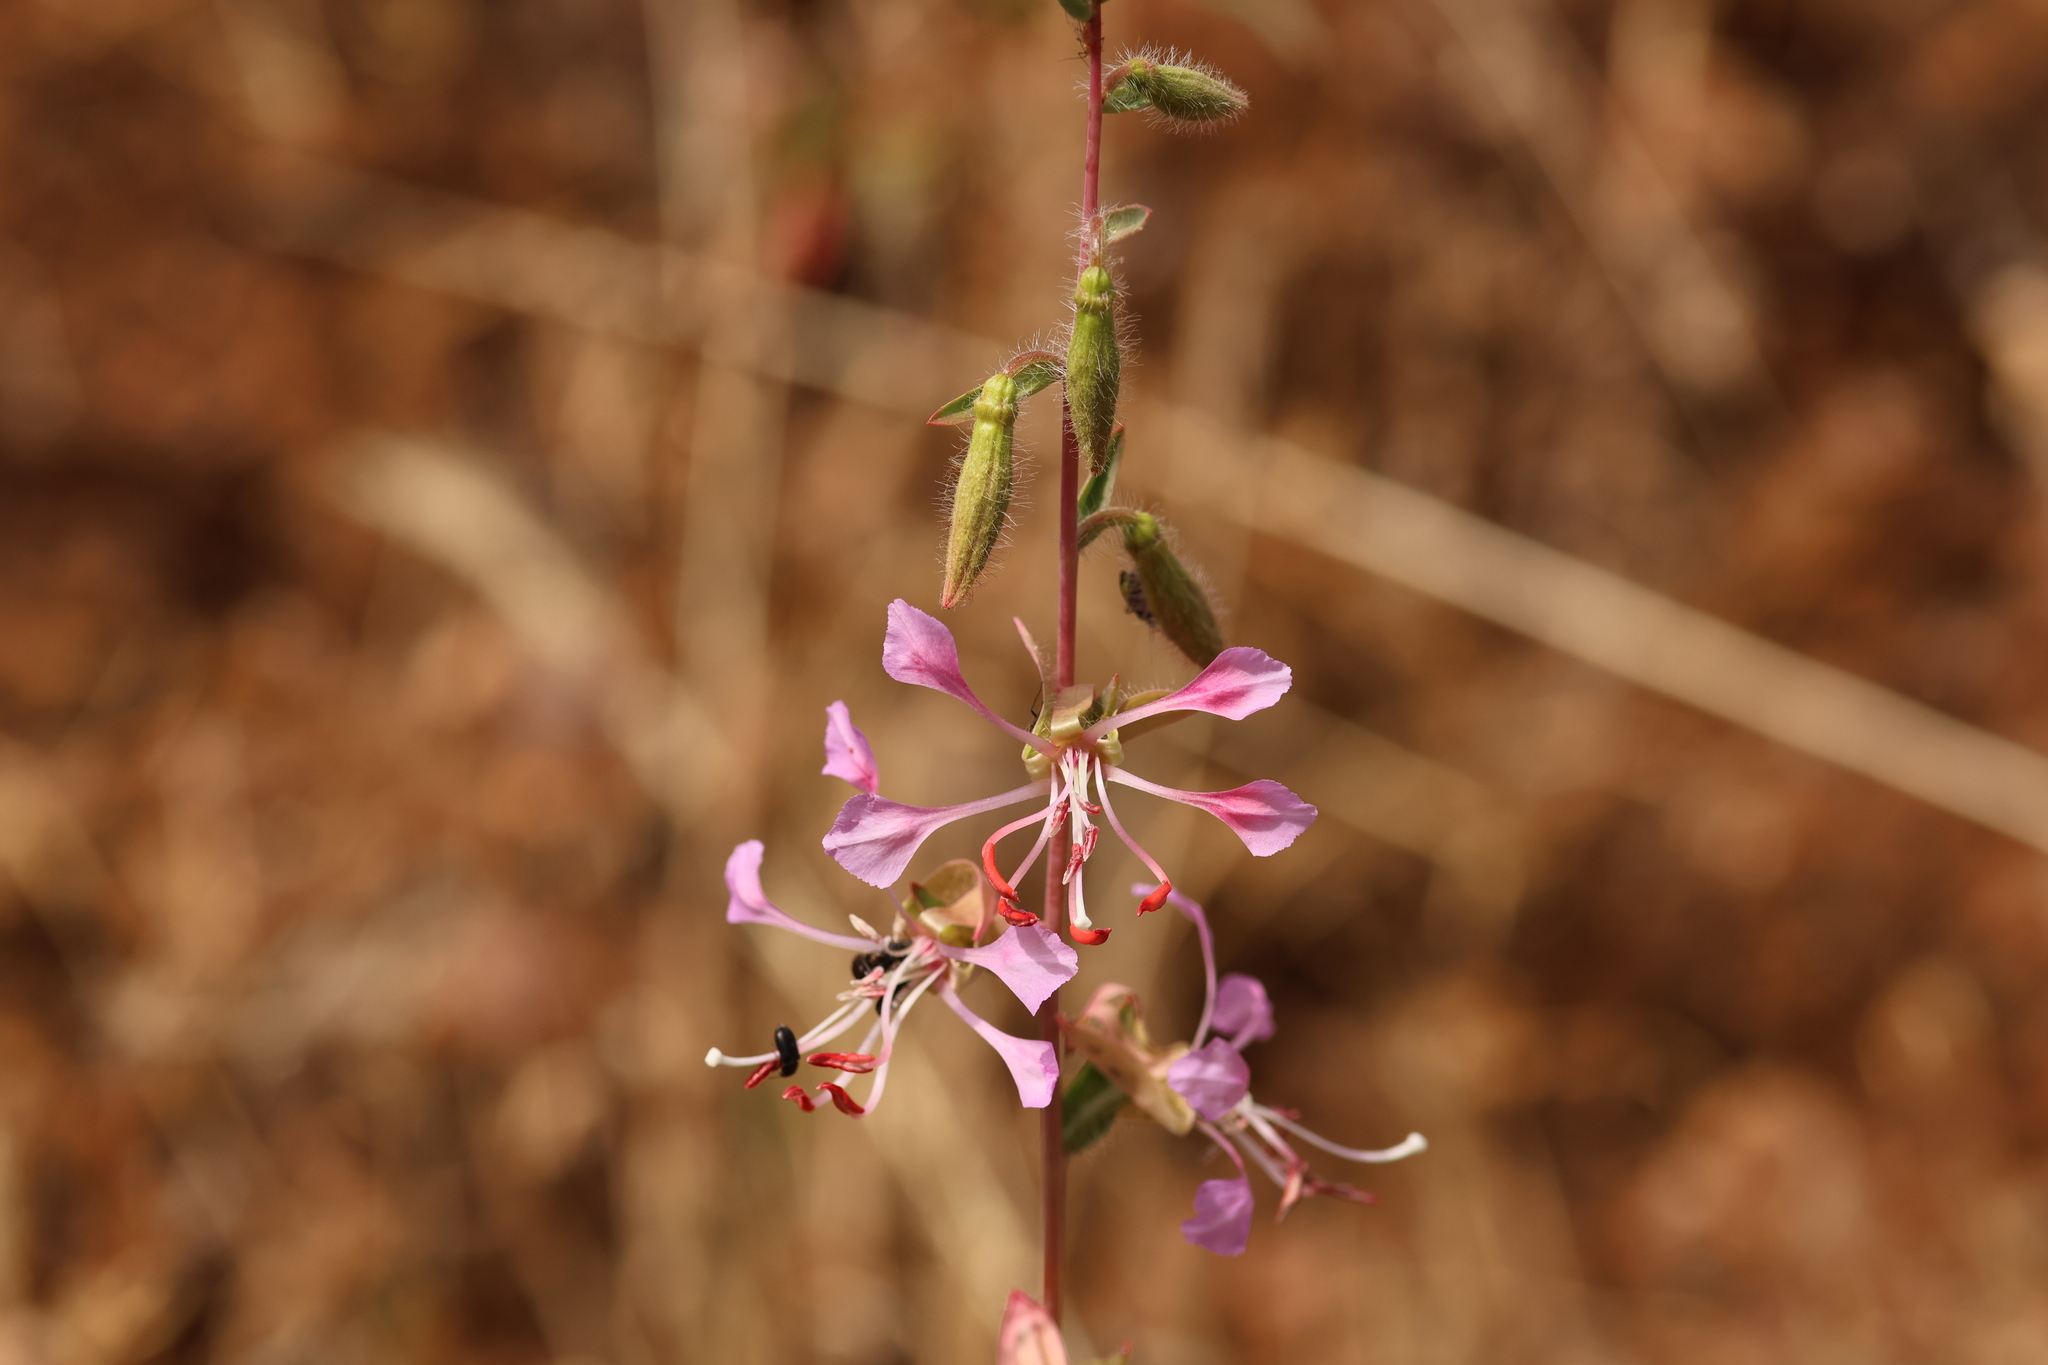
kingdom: Plantae
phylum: Tracheophyta
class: Magnoliopsida
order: Myrtales
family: Onagraceae
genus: Clarkia
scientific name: Clarkia unguiculata
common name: Clarkia
